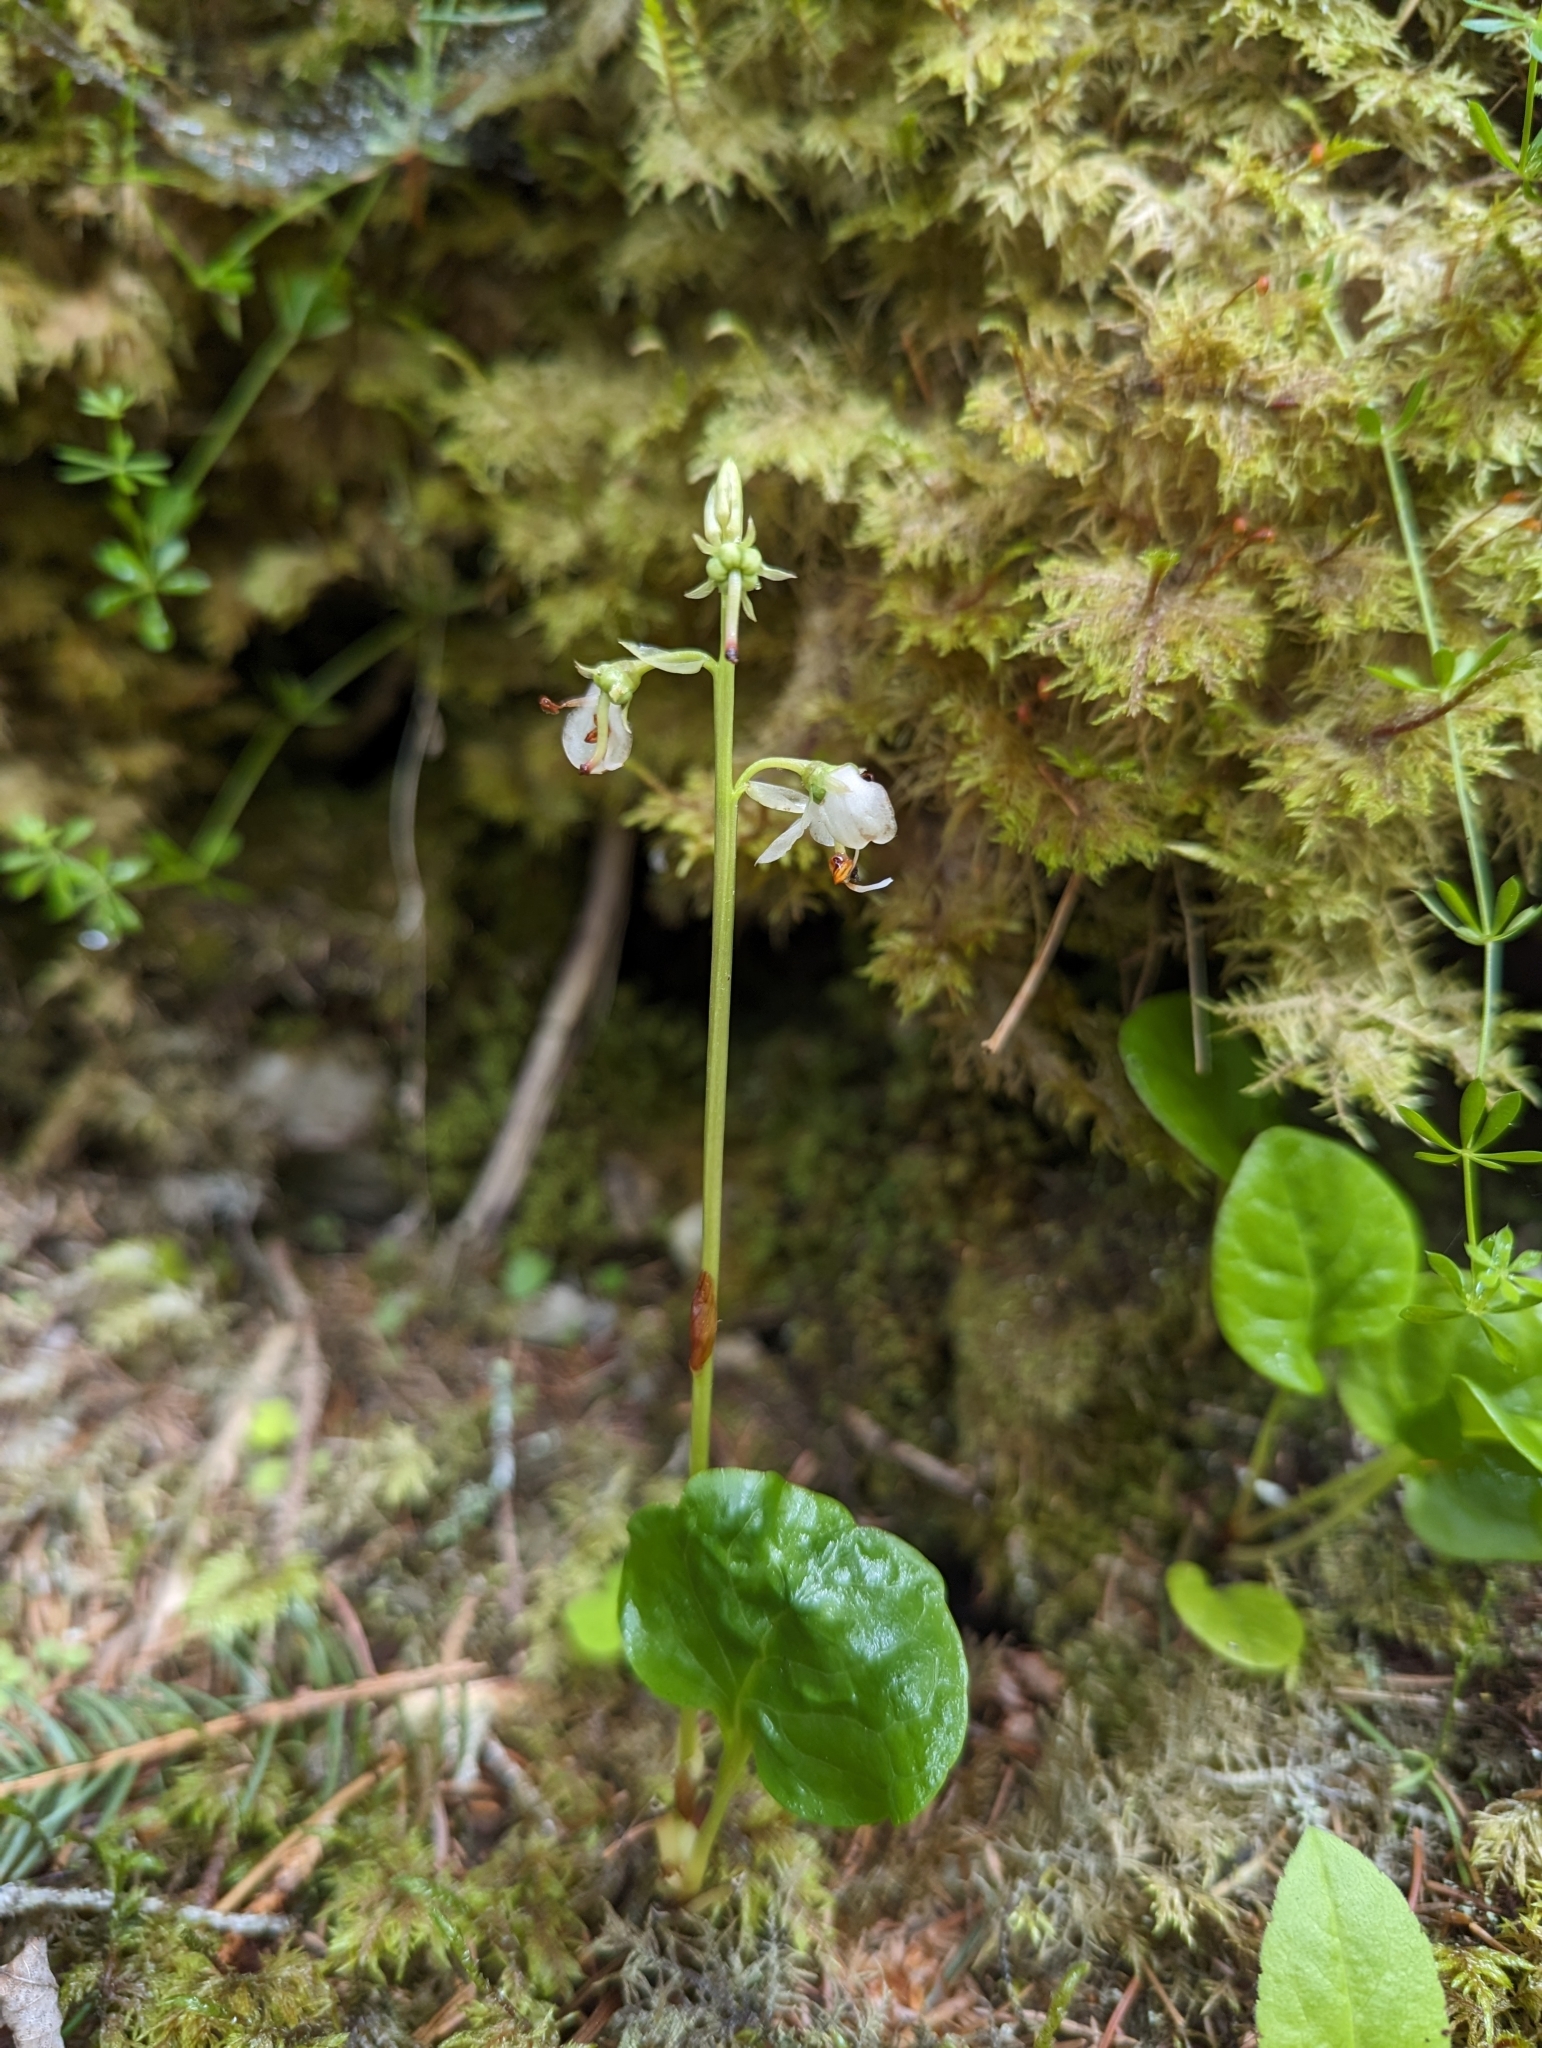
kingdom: Plantae
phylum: Tracheophyta
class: Magnoliopsida
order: Ericales
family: Ericaceae
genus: Pyrola
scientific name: Pyrola rotundifolia
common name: Round-leaved wintergreen
